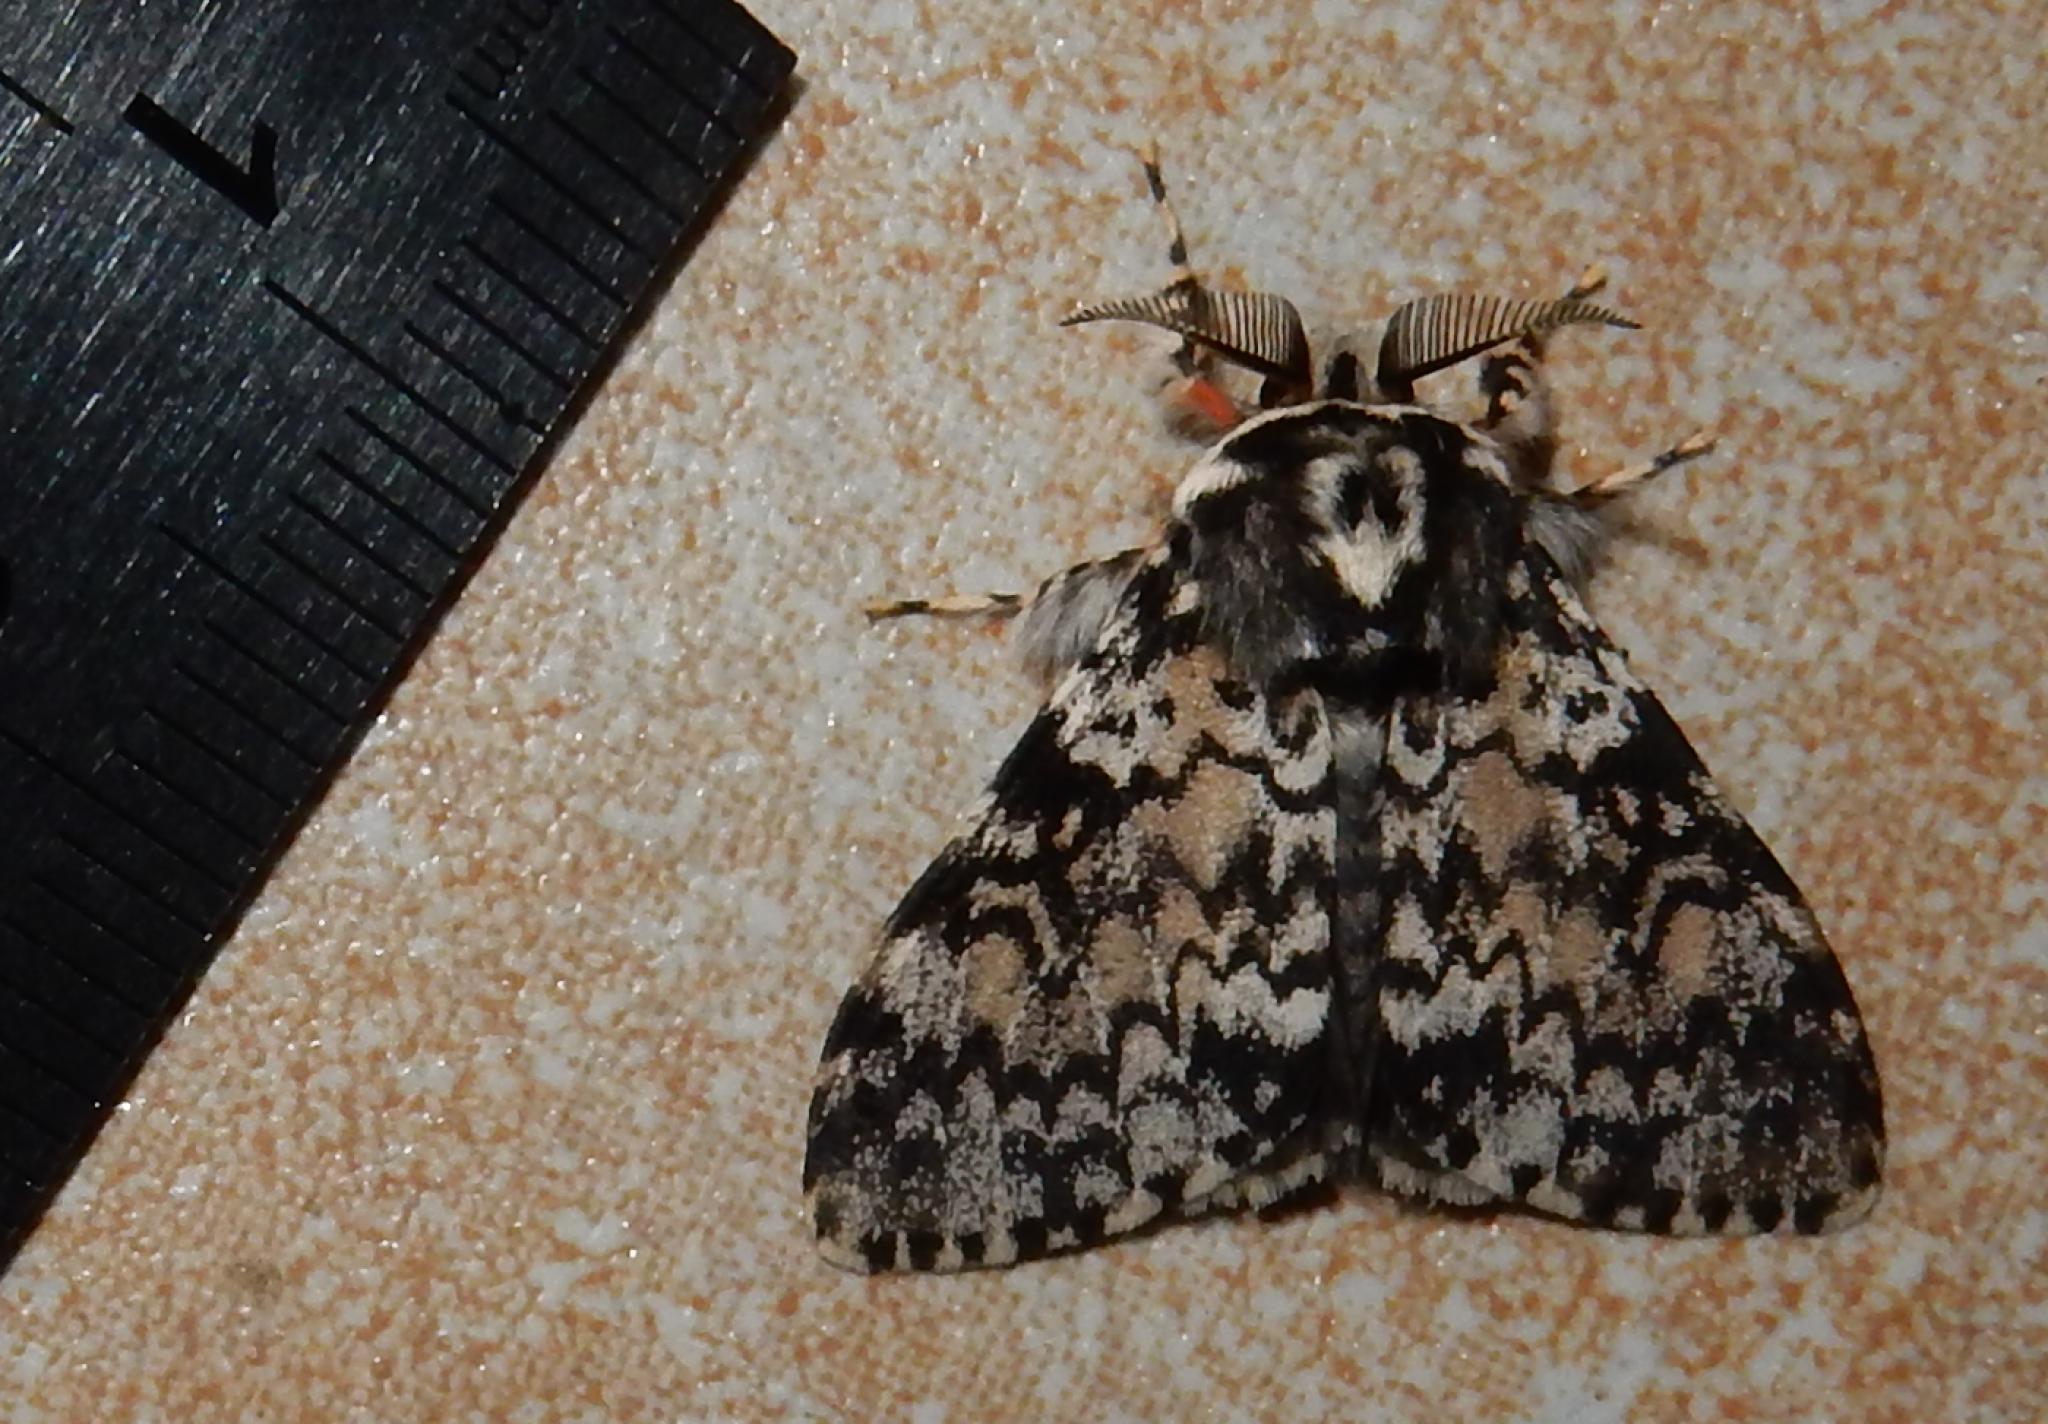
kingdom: Animalia
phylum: Arthropoda
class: Insecta
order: Lepidoptera
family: Erebidae
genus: Lymantria
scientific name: Lymantria kettlewelli
